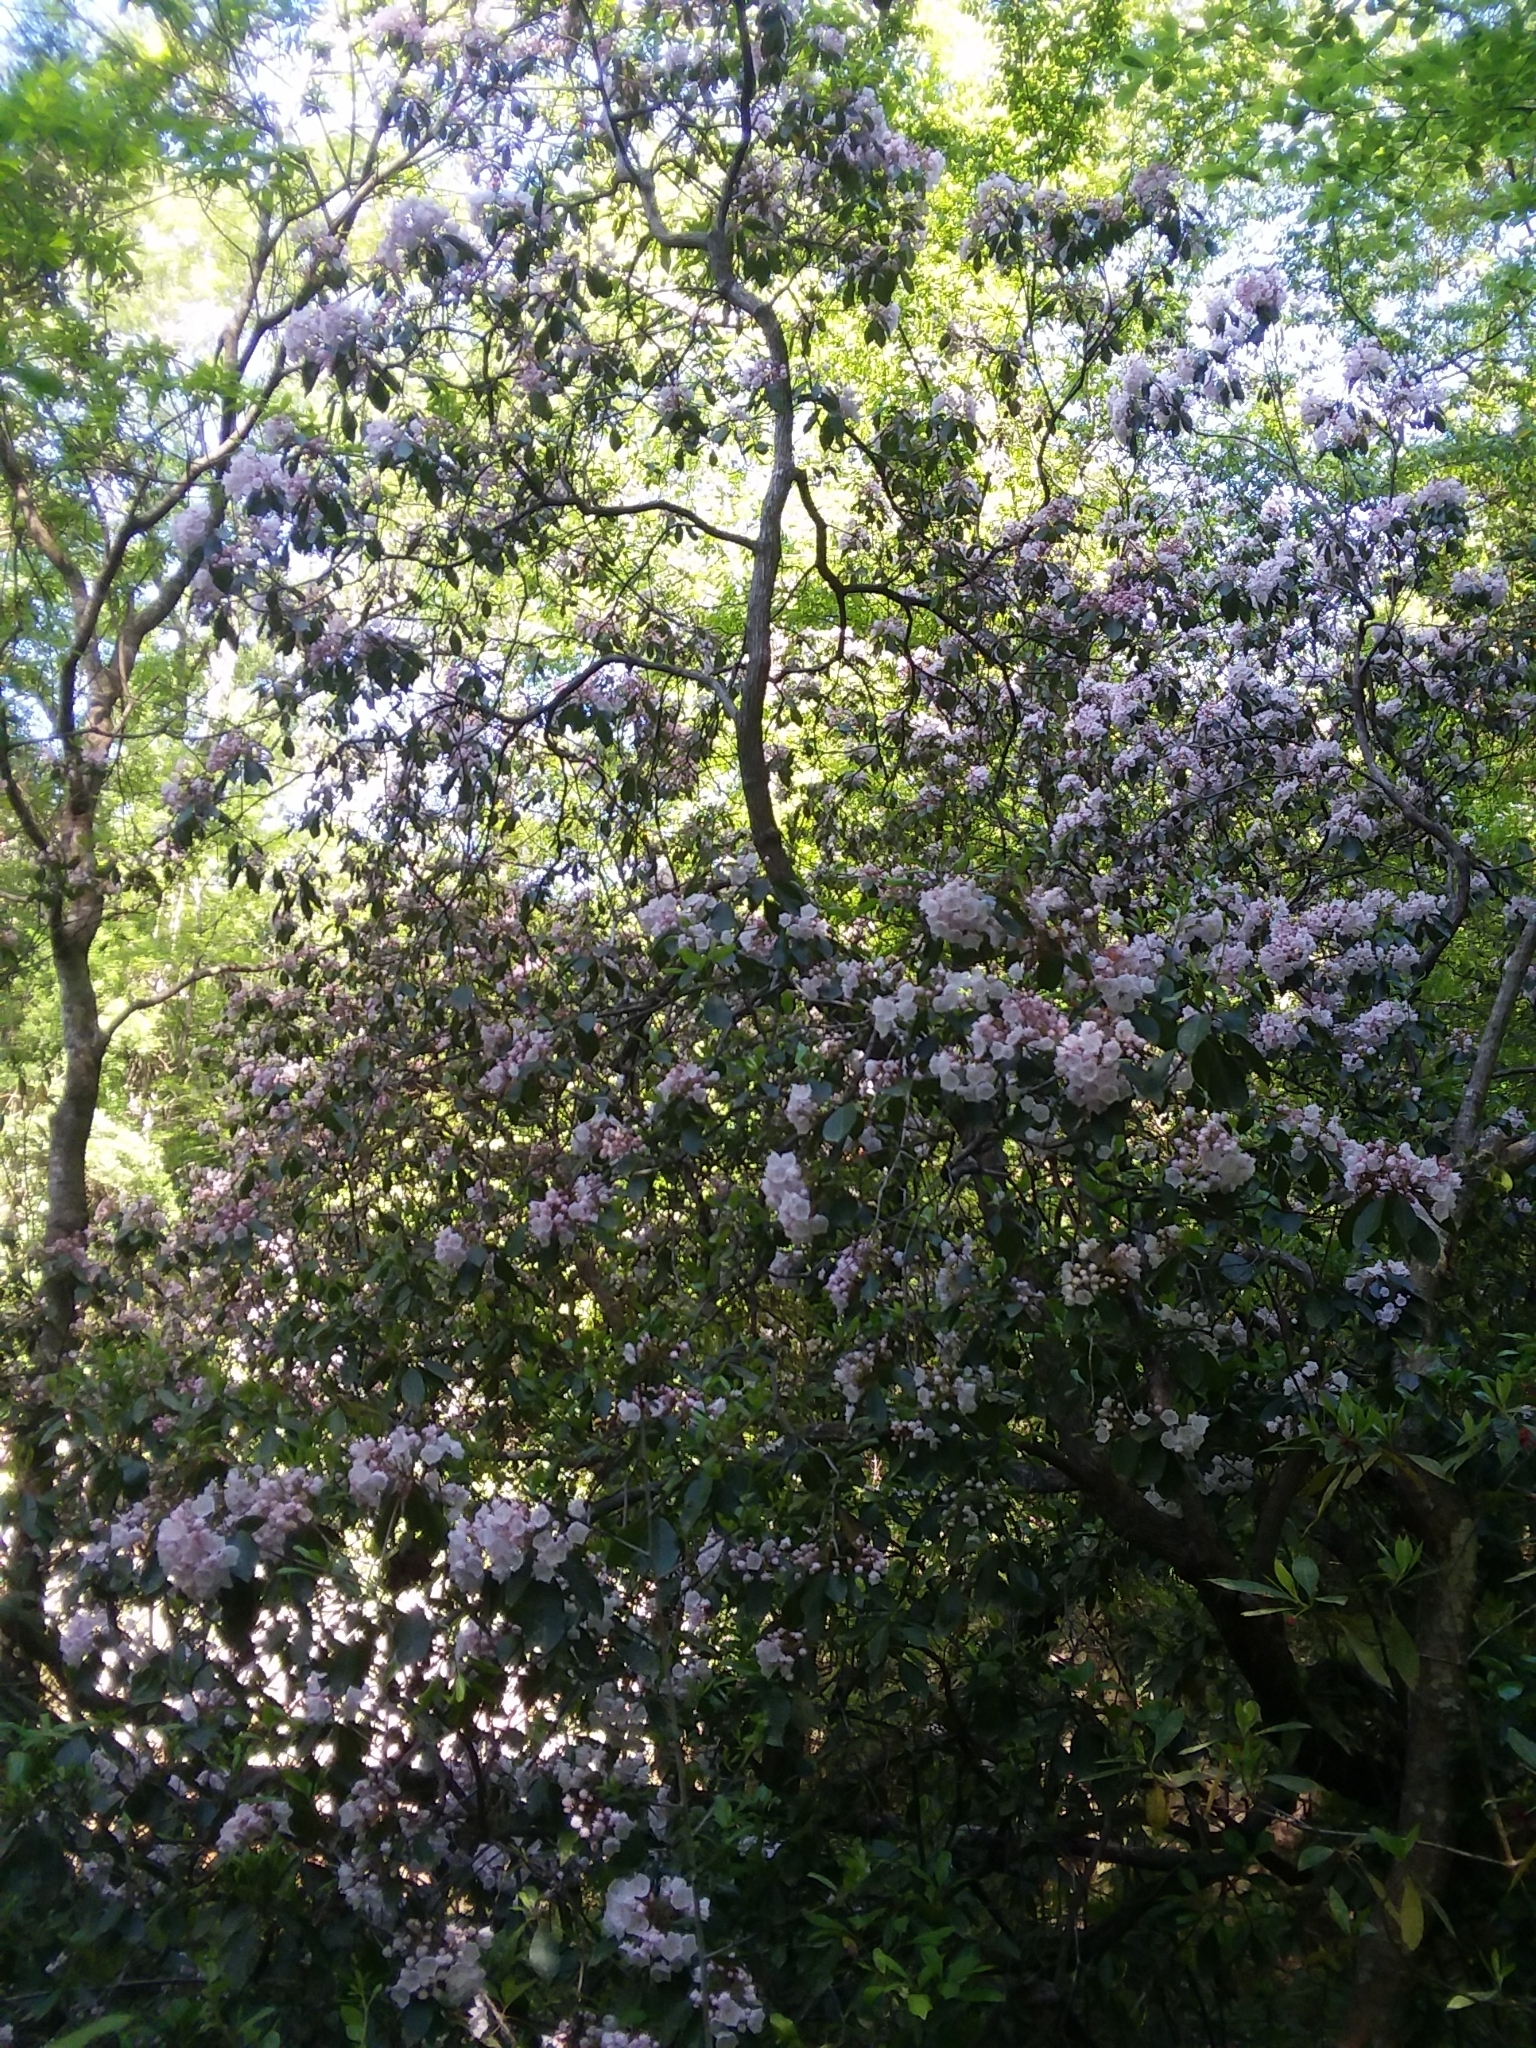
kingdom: Plantae
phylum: Tracheophyta
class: Magnoliopsida
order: Ericales
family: Ericaceae
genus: Kalmia
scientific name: Kalmia latifolia
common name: Mountain-laurel
